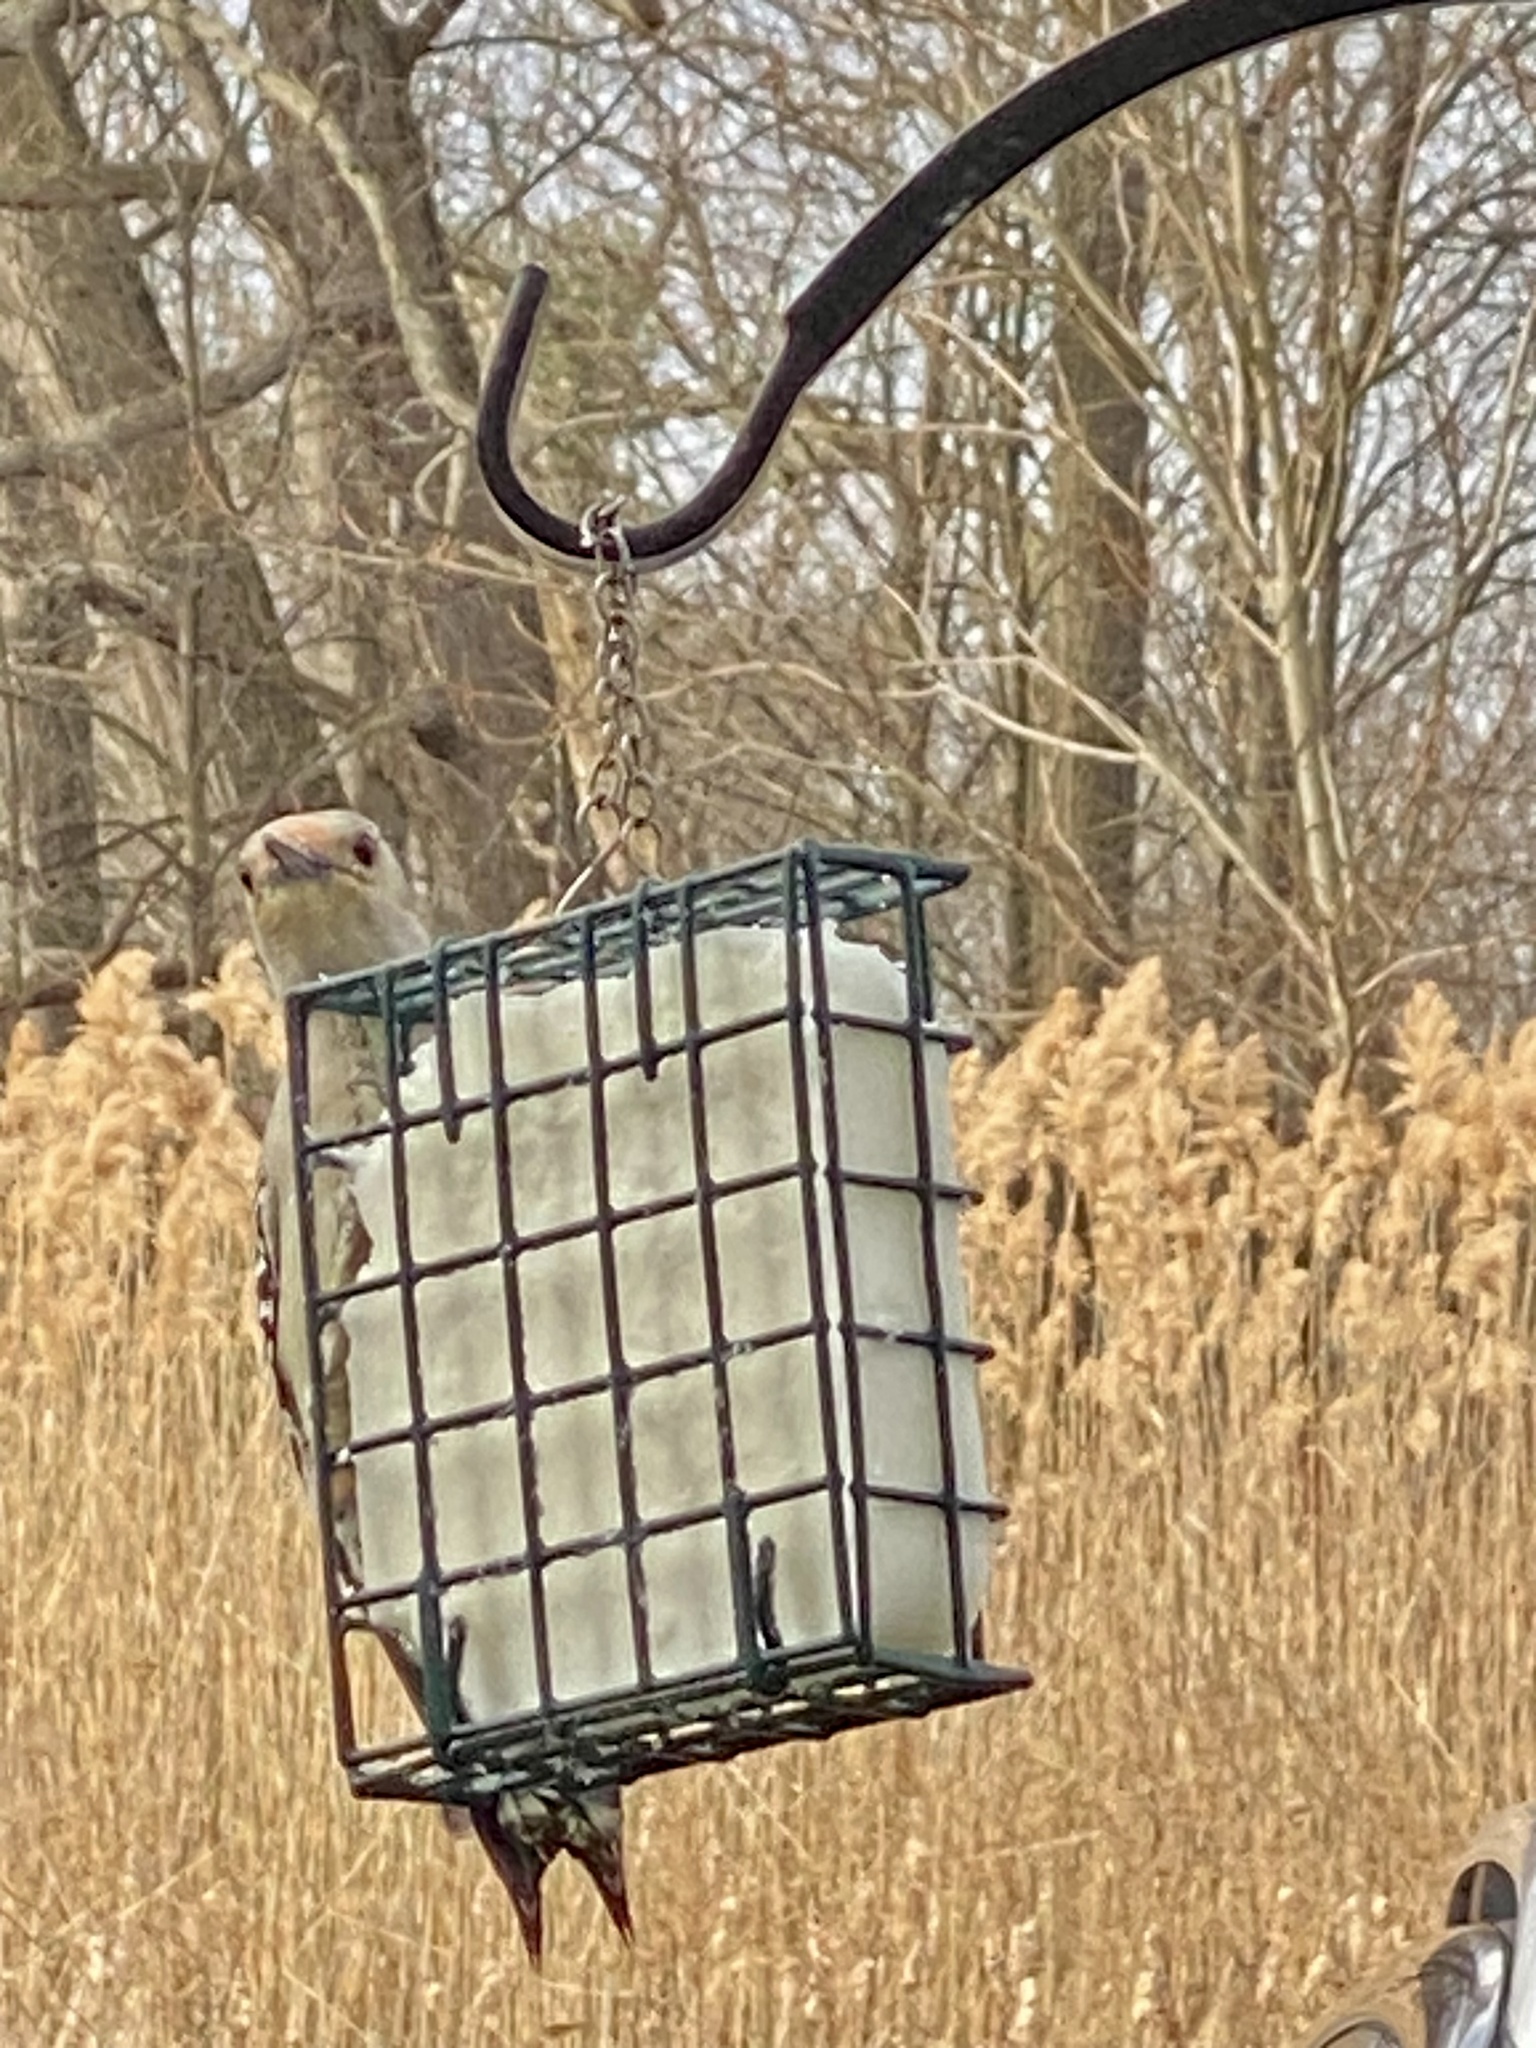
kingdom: Animalia
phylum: Chordata
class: Aves
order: Piciformes
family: Picidae
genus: Melanerpes
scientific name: Melanerpes carolinus
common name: Red-bellied woodpecker
